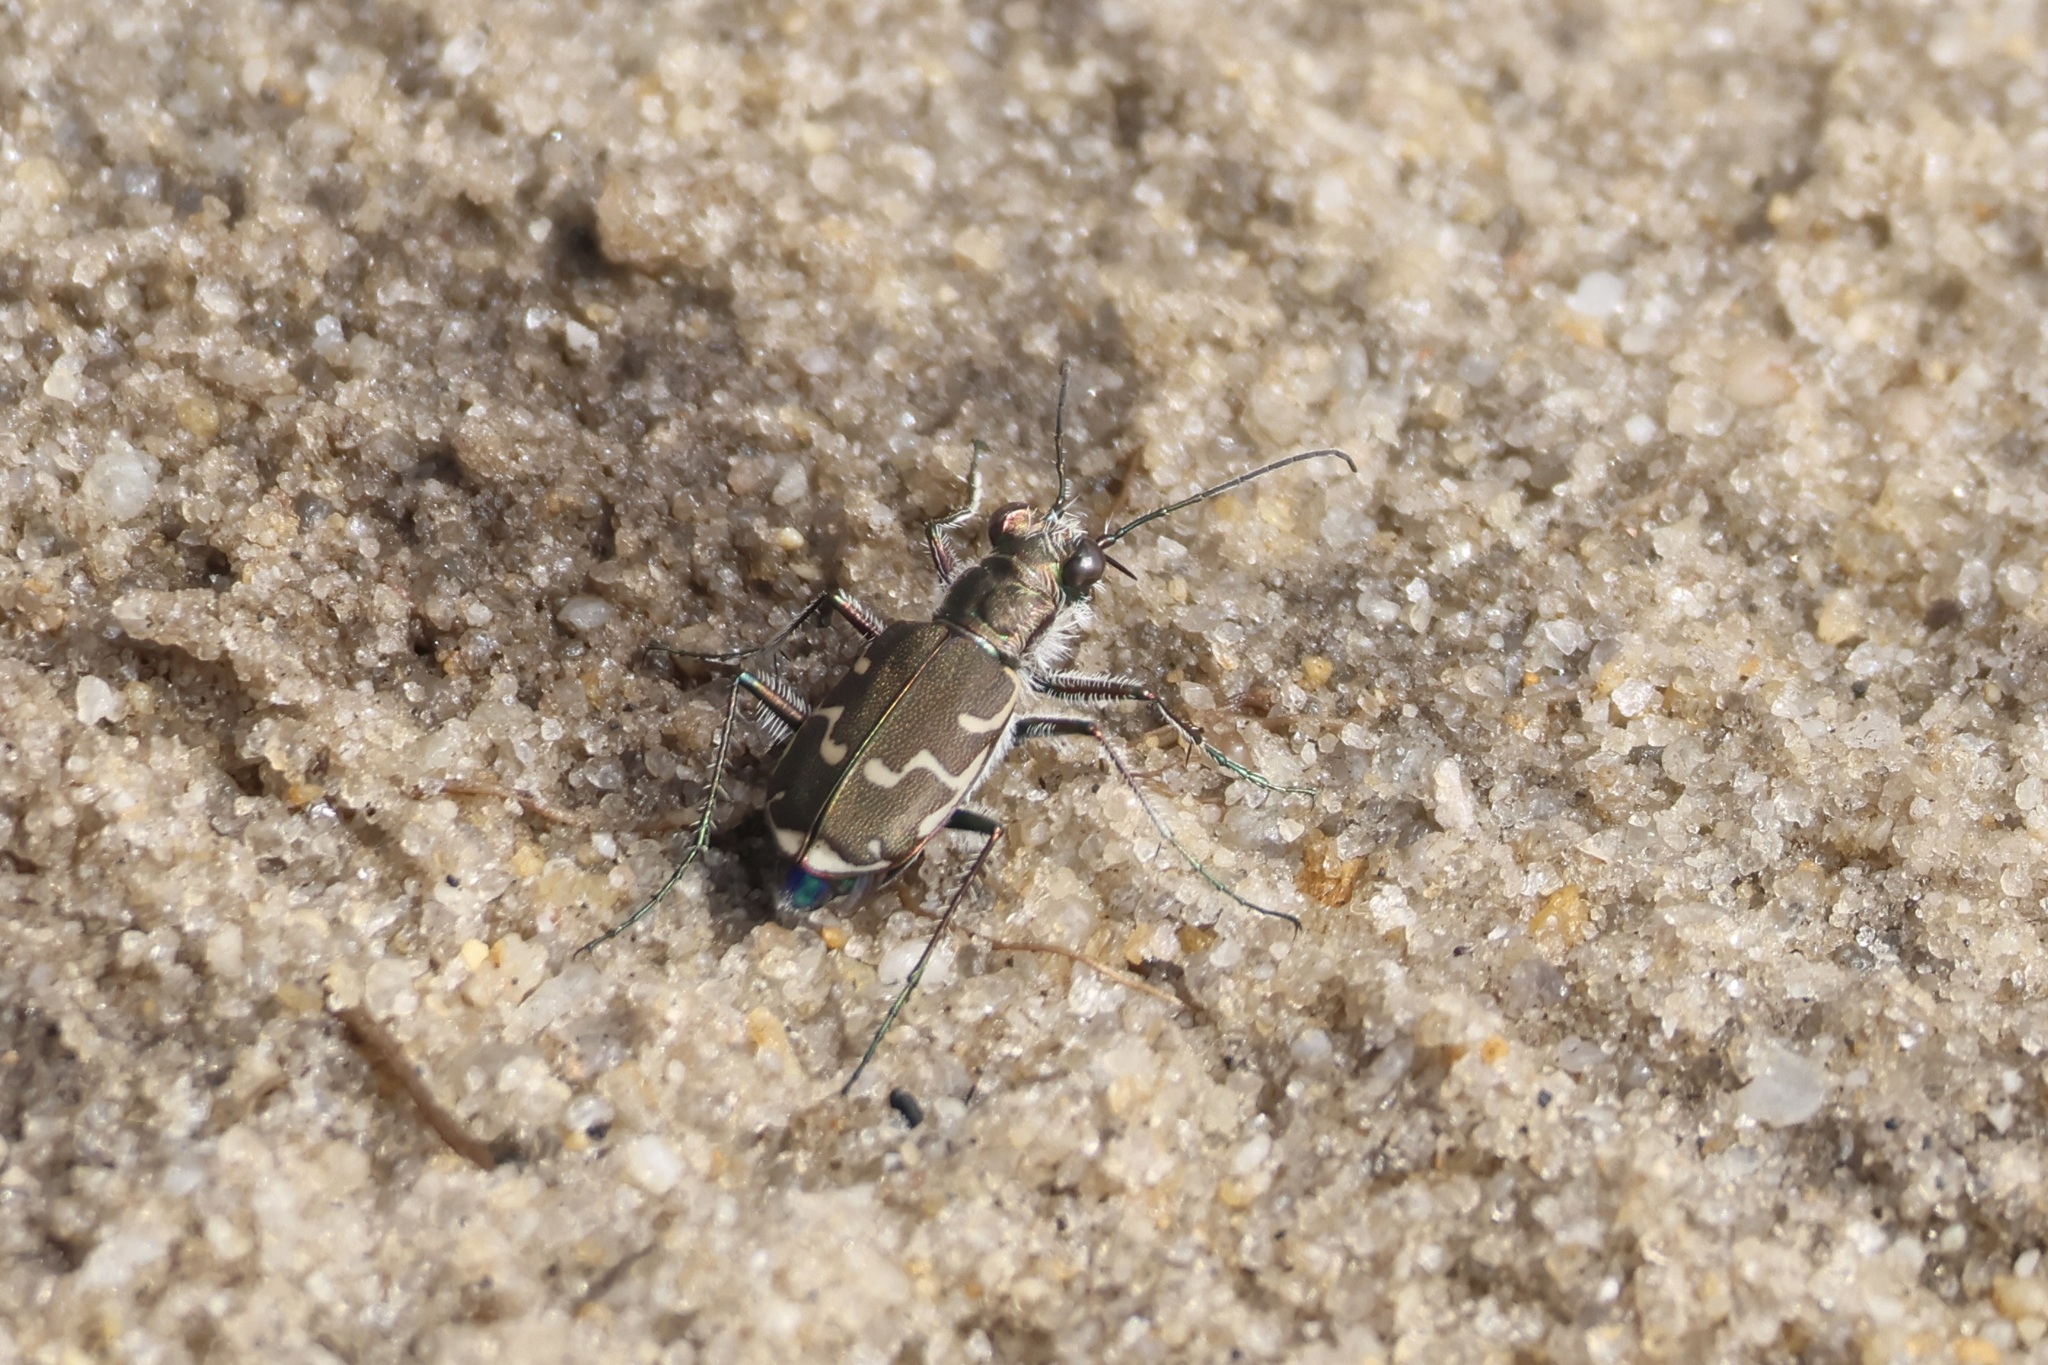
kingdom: Animalia
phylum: Arthropoda
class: Insecta
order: Coleoptera
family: Carabidae
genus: Cicindela
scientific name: Cicindela repanda
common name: Bronzed tiger beetle
